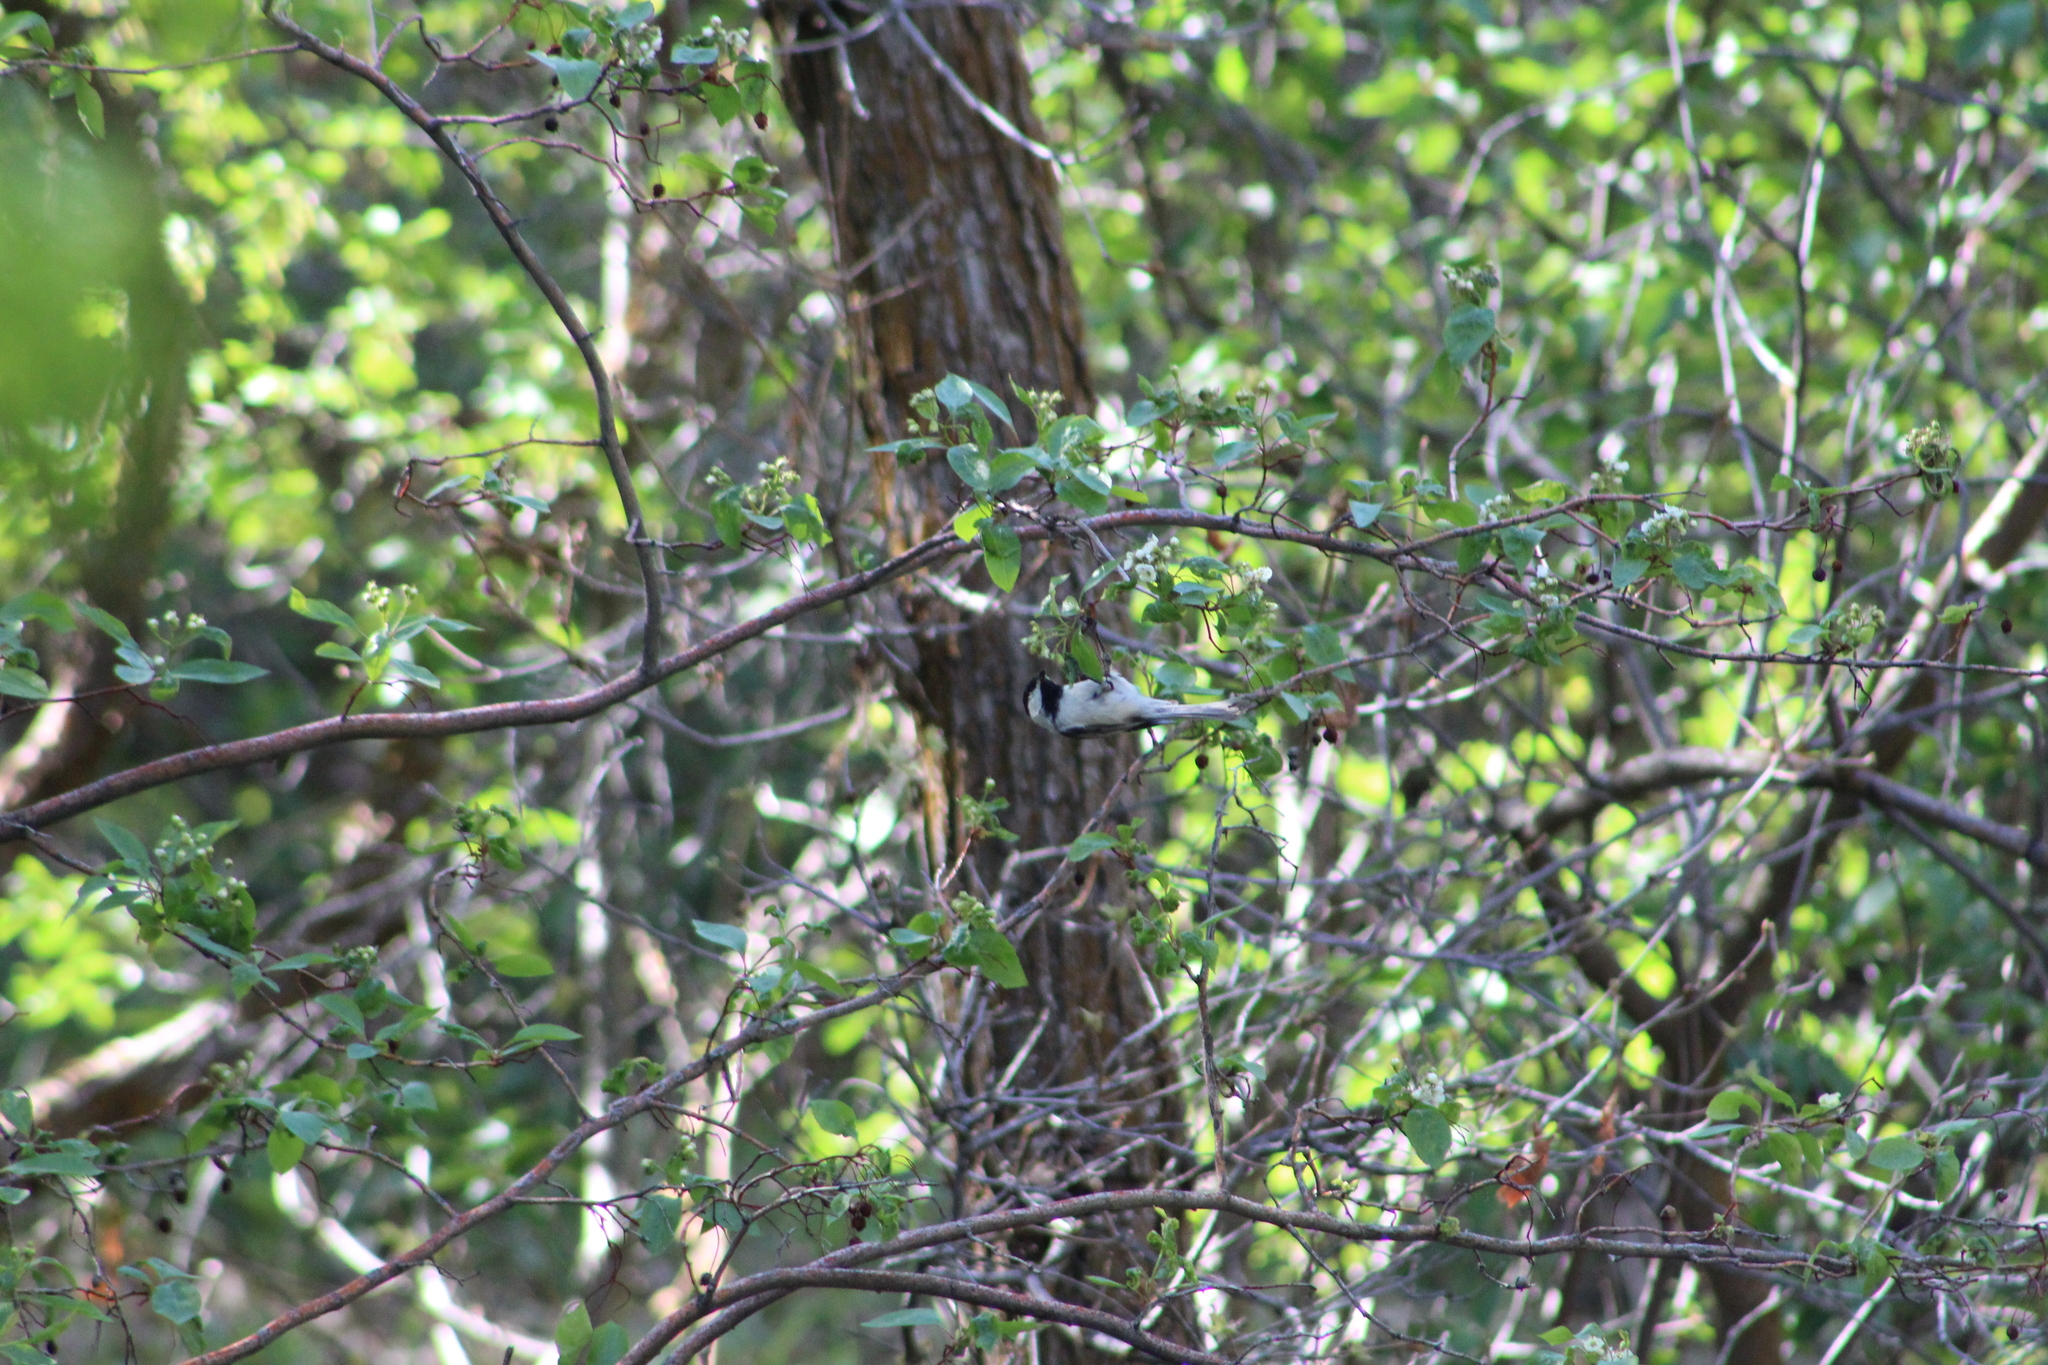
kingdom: Animalia
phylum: Chordata
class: Aves
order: Passeriformes
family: Paridae
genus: Poecile
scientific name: Poecile atricapillus
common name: Black-capped chickadee
